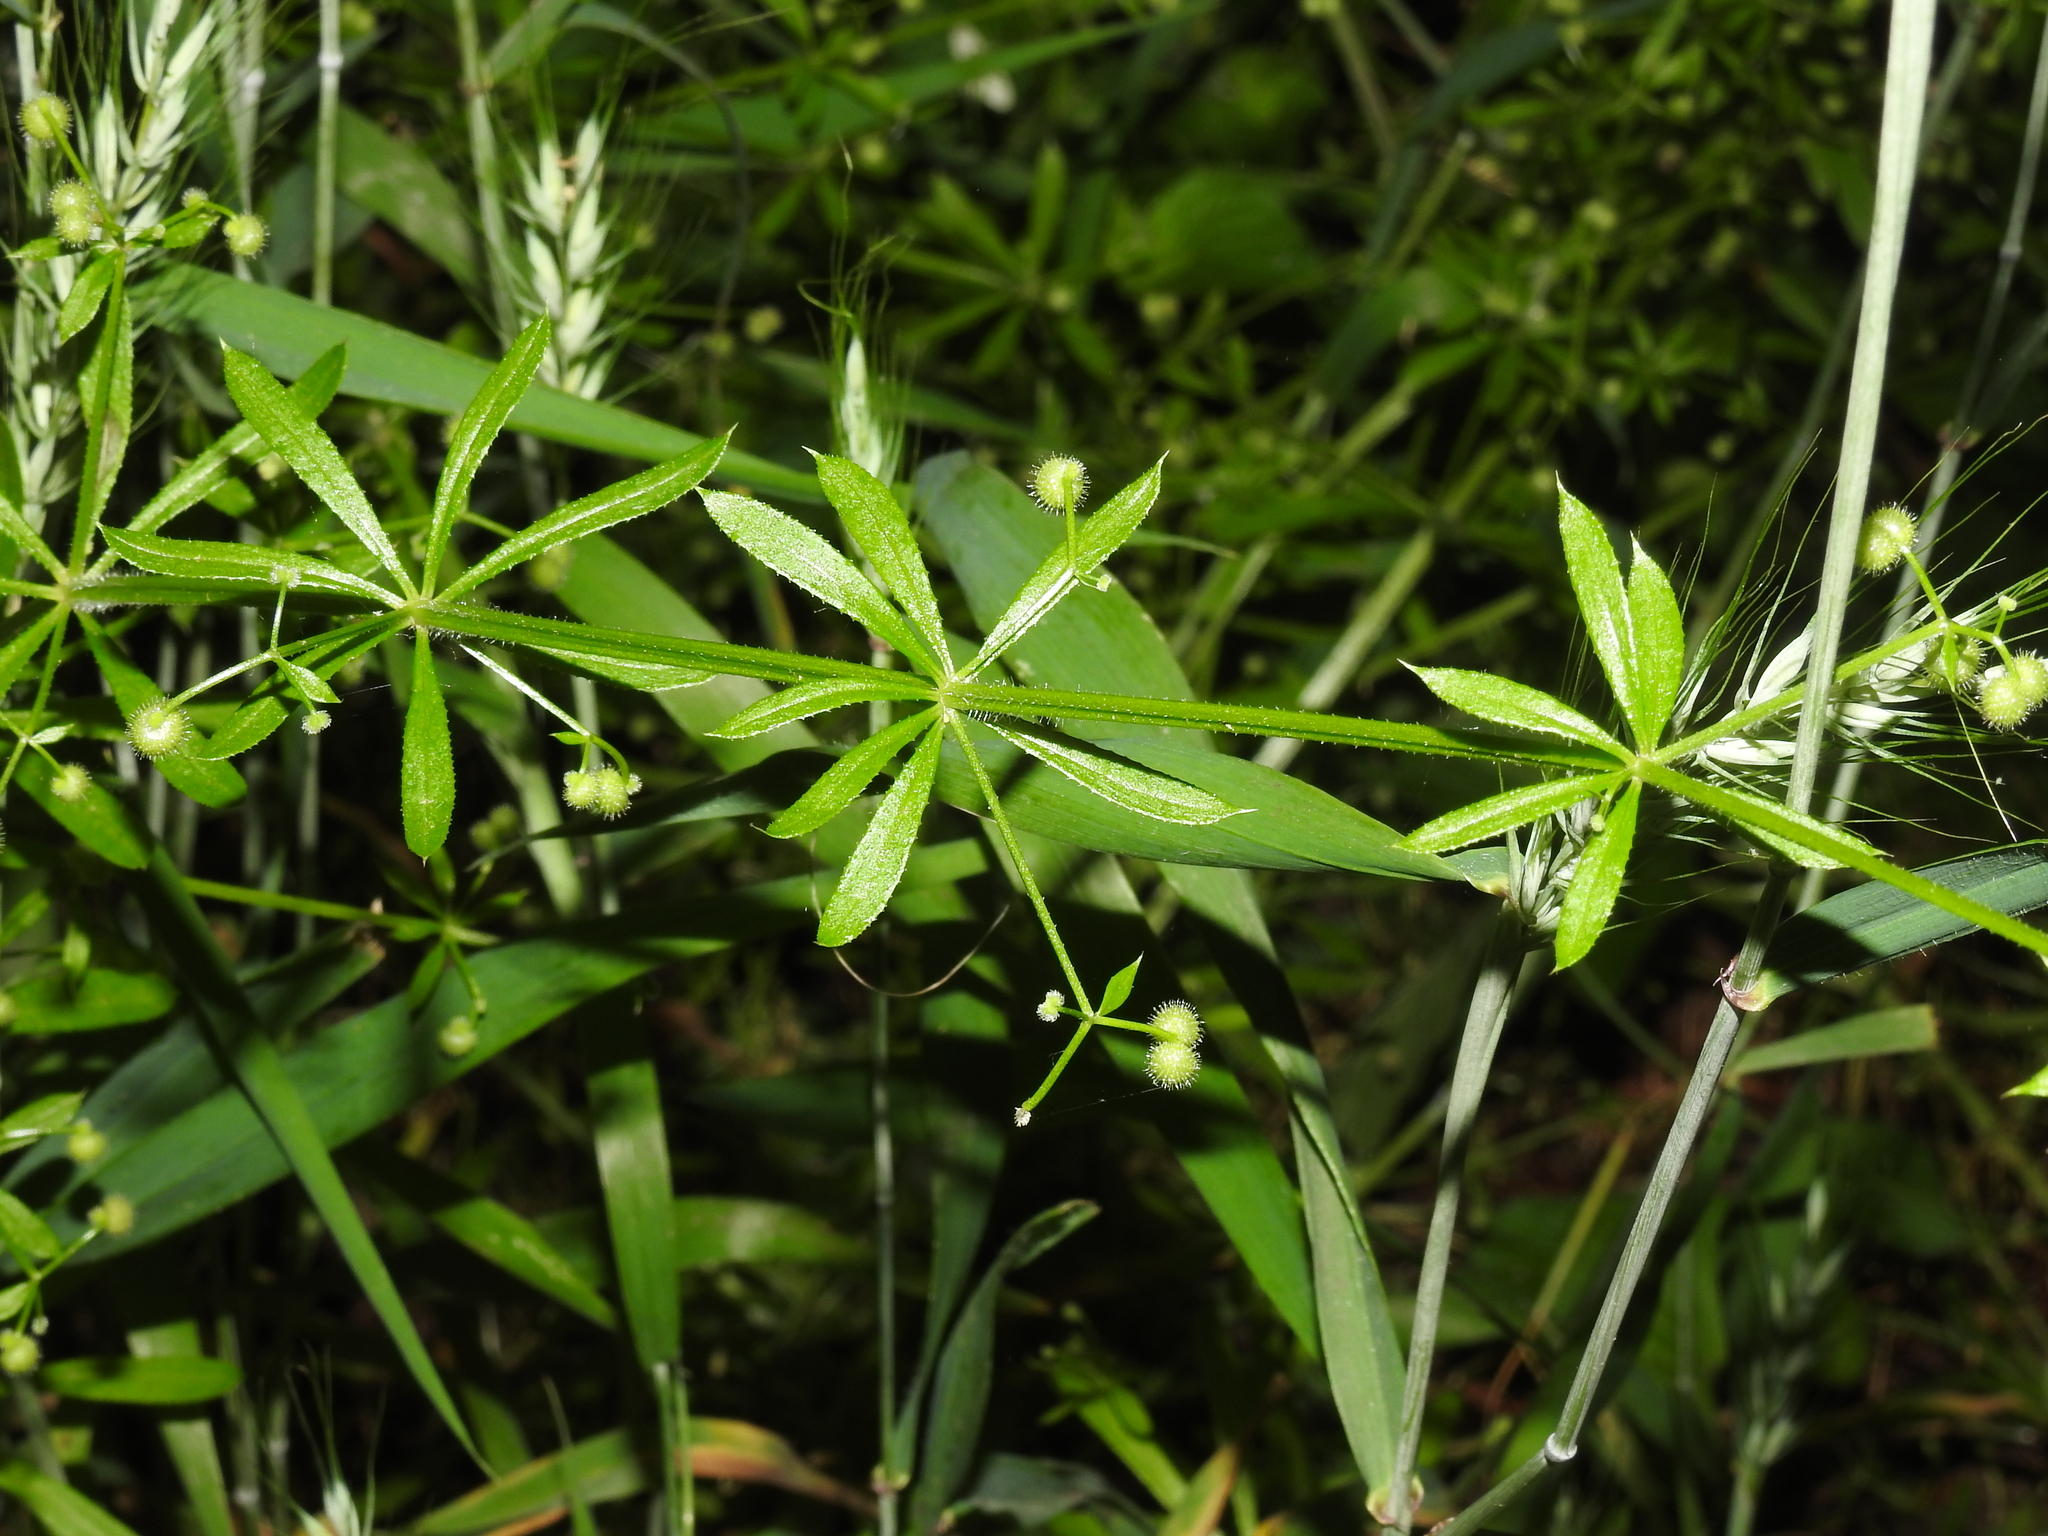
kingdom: Plantae
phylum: Tracheophyta
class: Magnoliopsida
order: Gentianales
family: Rubiaceae
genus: Galium
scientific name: Galium aparine
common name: Cleavers
